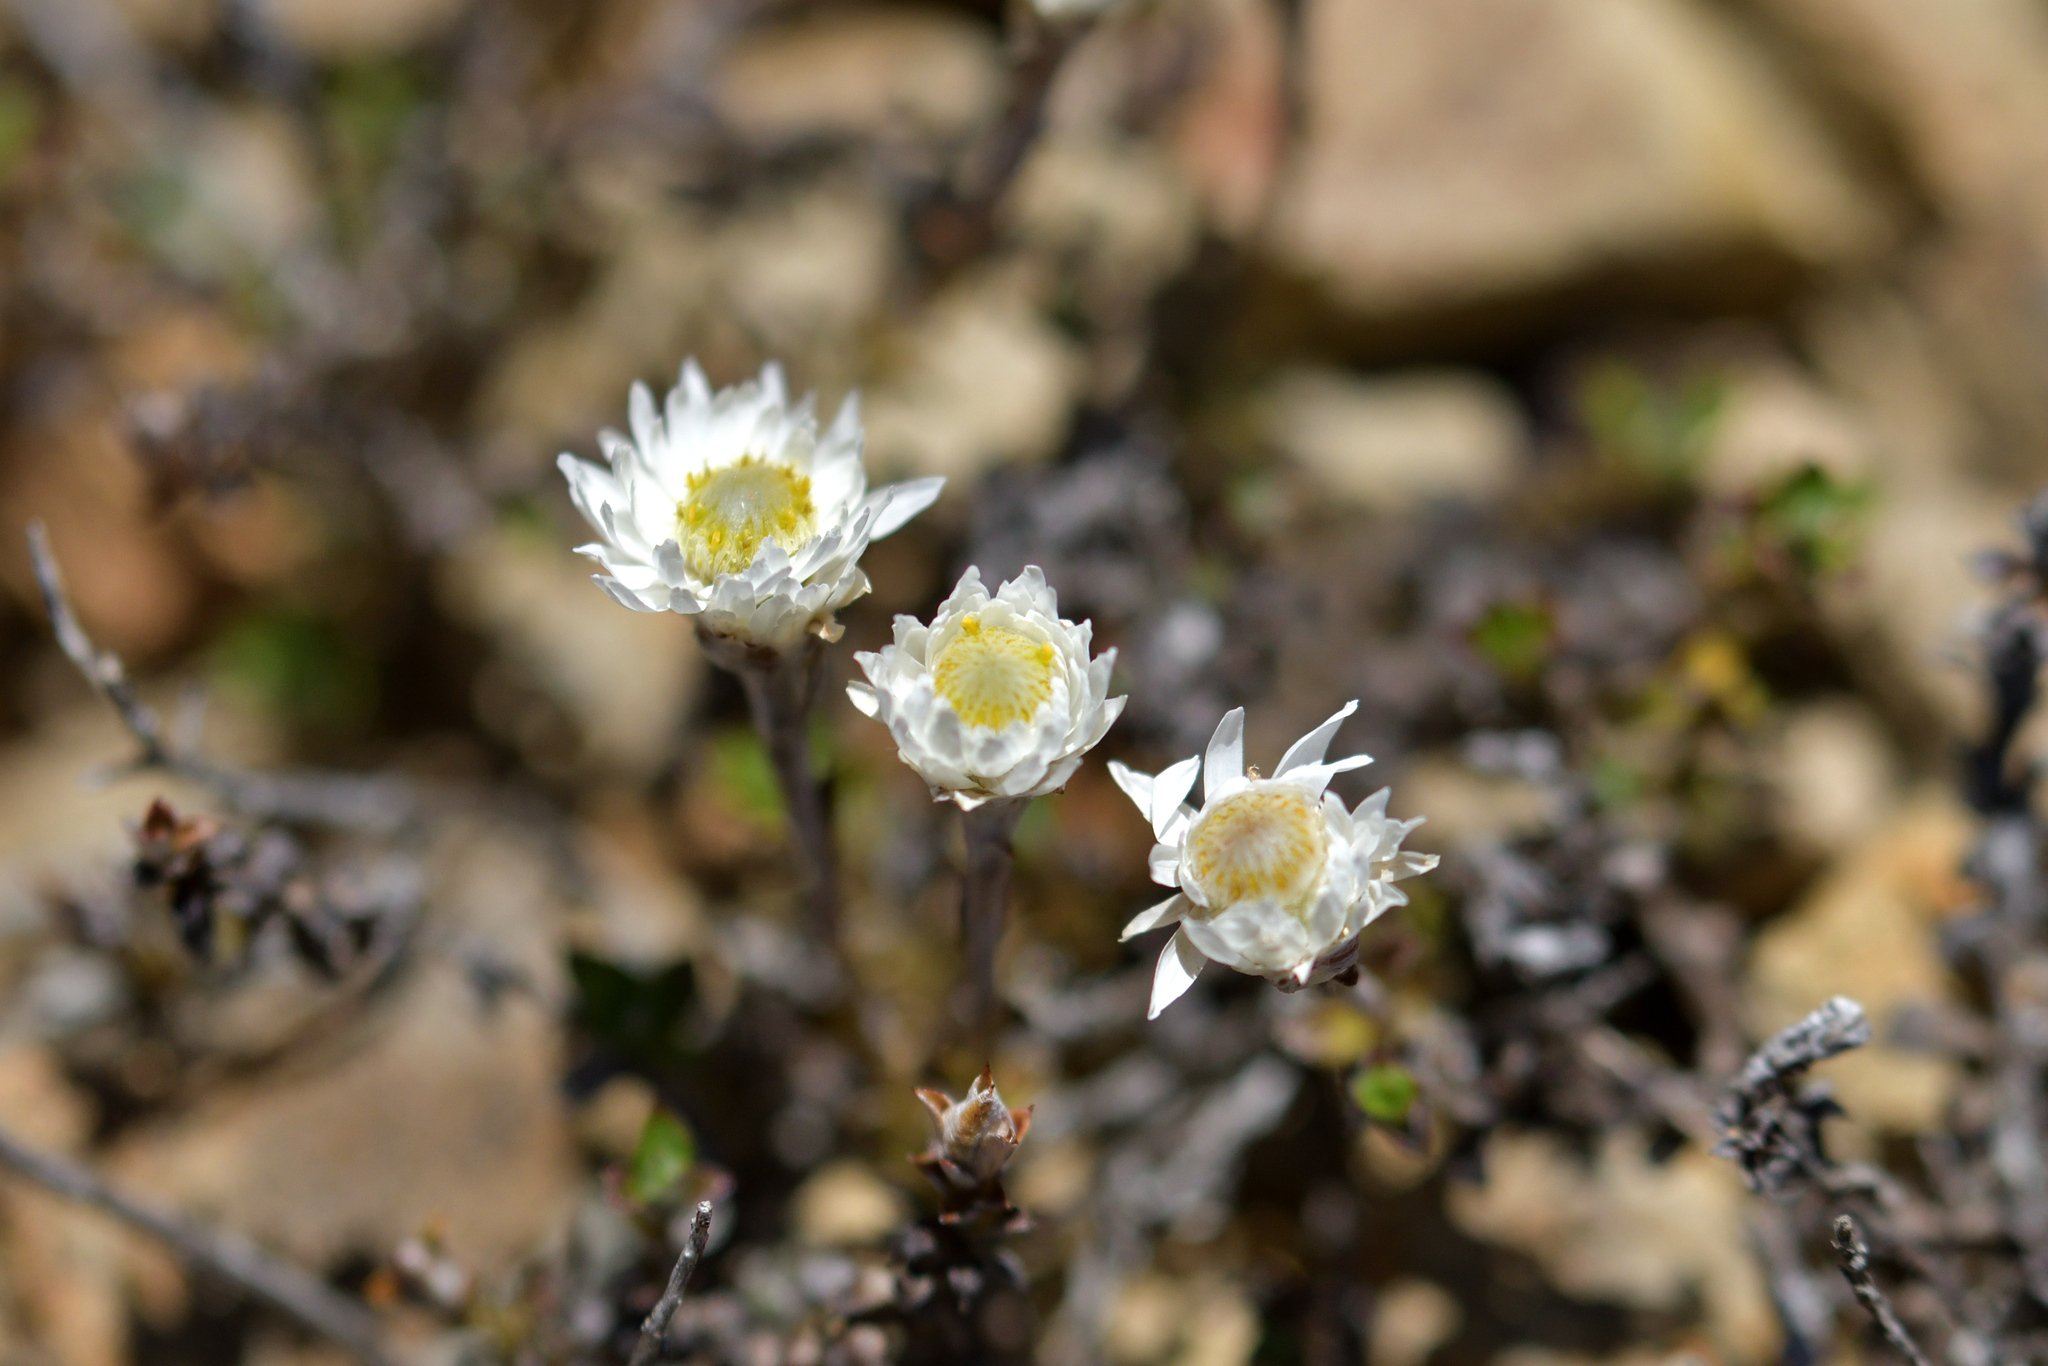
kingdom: Plantae
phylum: Tracheophyta
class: Magnoliopsida
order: Asterales
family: Asteraceae
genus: Anaphalioides
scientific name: Anaphalioides bellidioides
